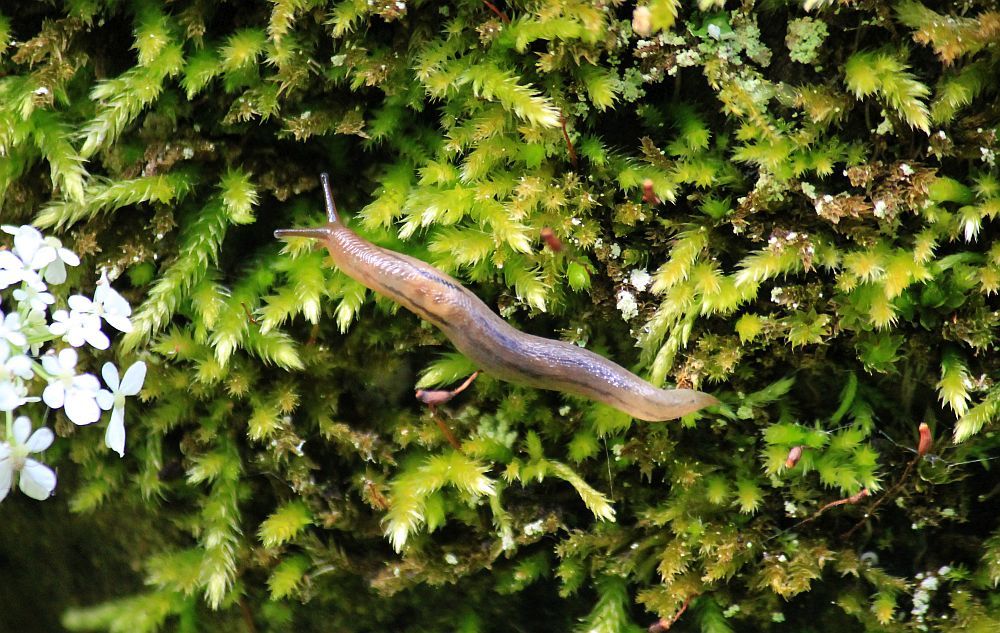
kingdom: Animalia
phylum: Mollusca
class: Gastropoda
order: Stylommatophora
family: Limacidae
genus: Ambigolimax
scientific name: Ambigolimax
